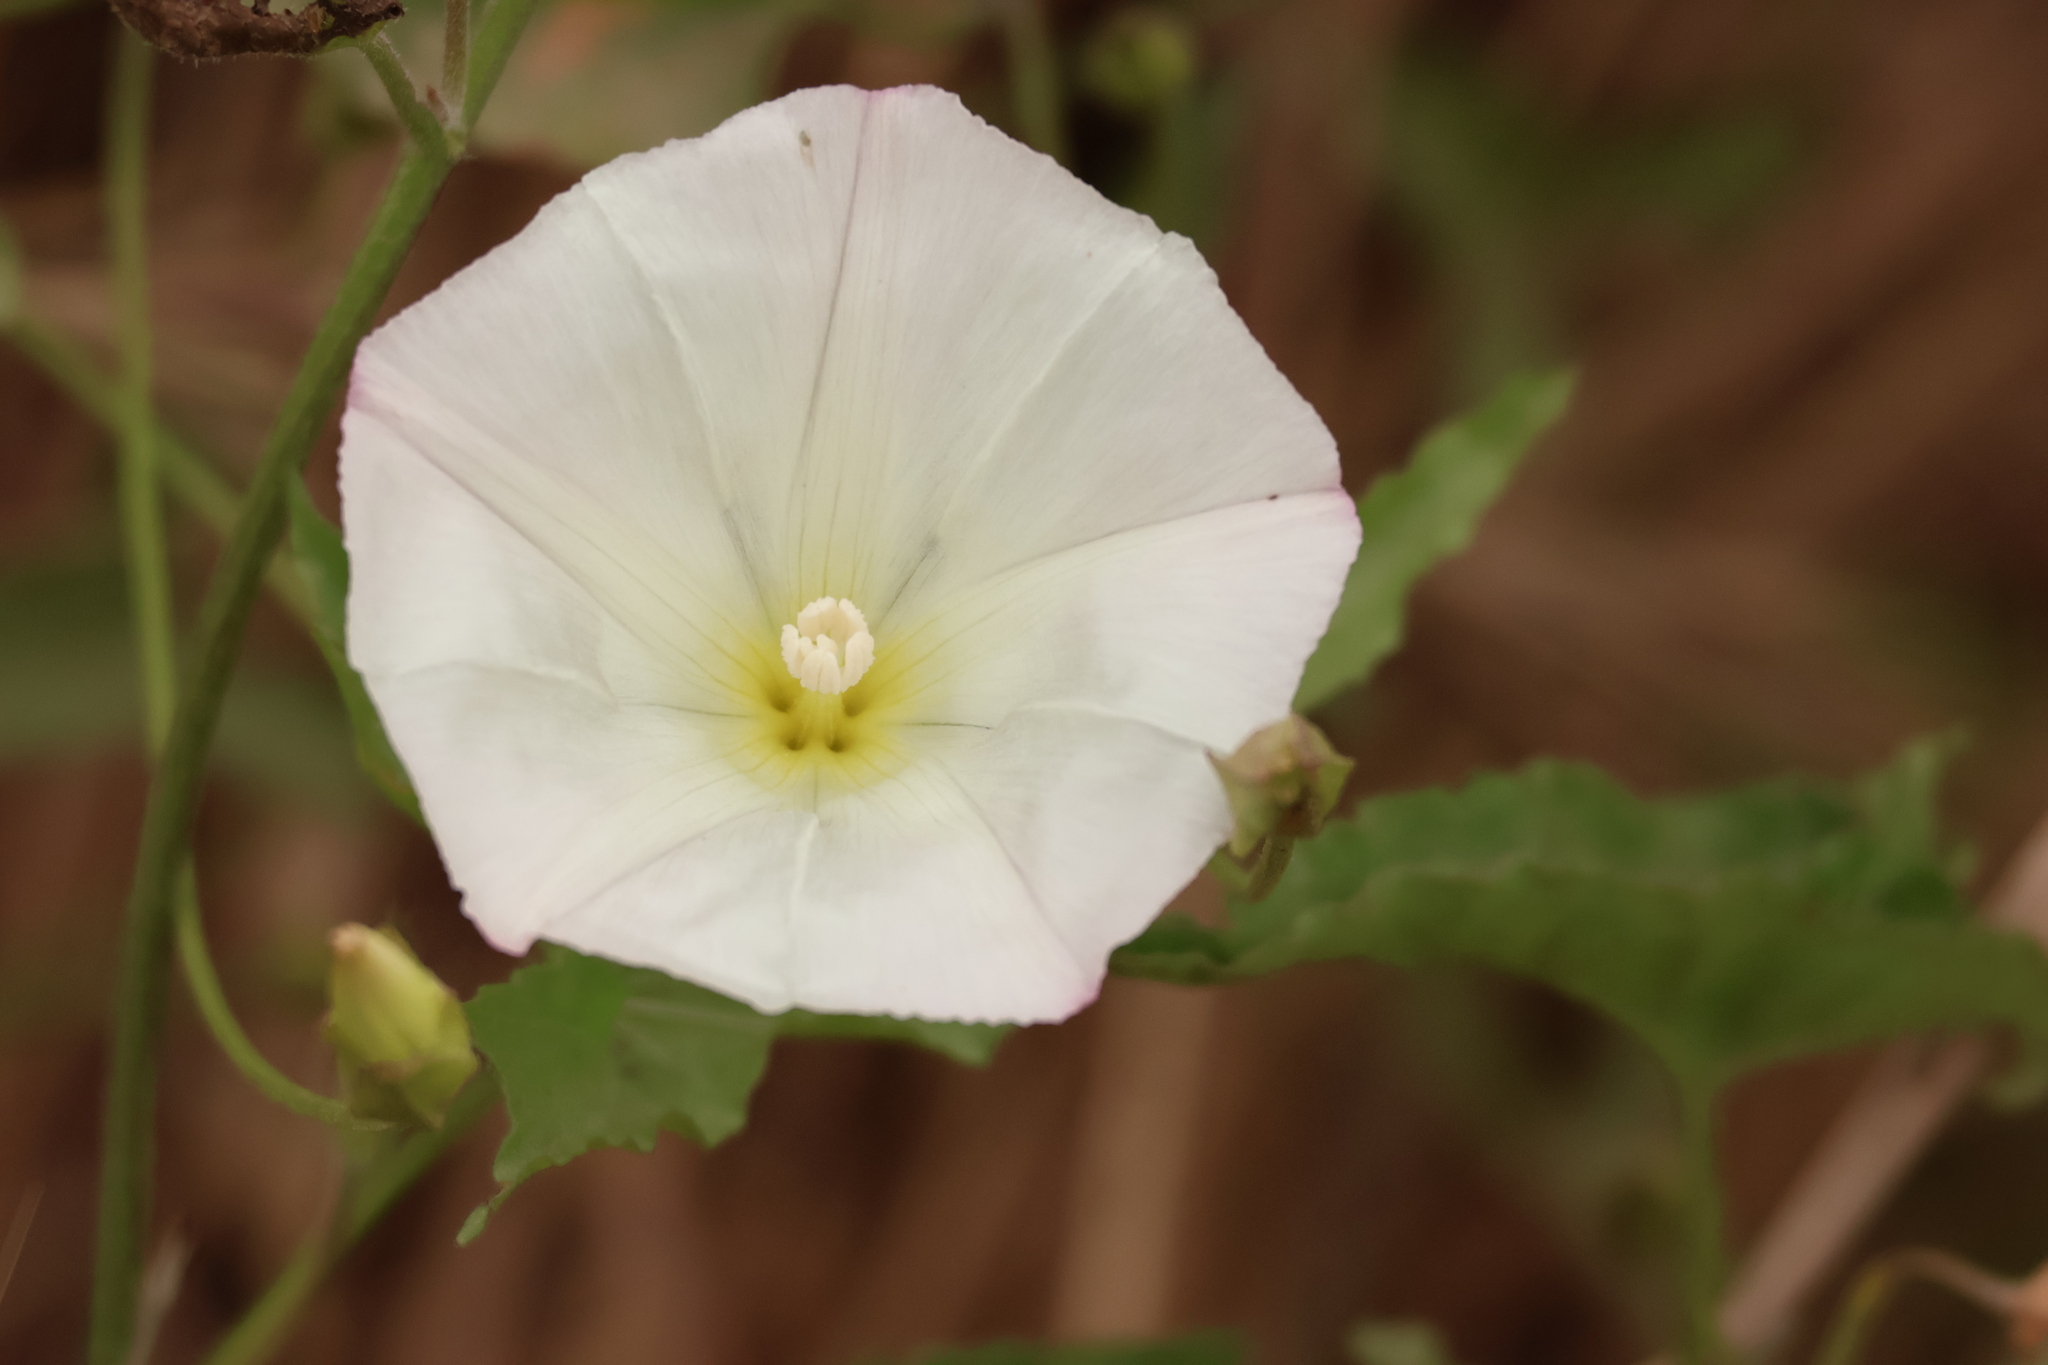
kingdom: Plantae
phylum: Tracheophyta
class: Magnoliopsida
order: Solanales
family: Convolvulaceae
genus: Calystegia
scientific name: Calystegia macrostegia
